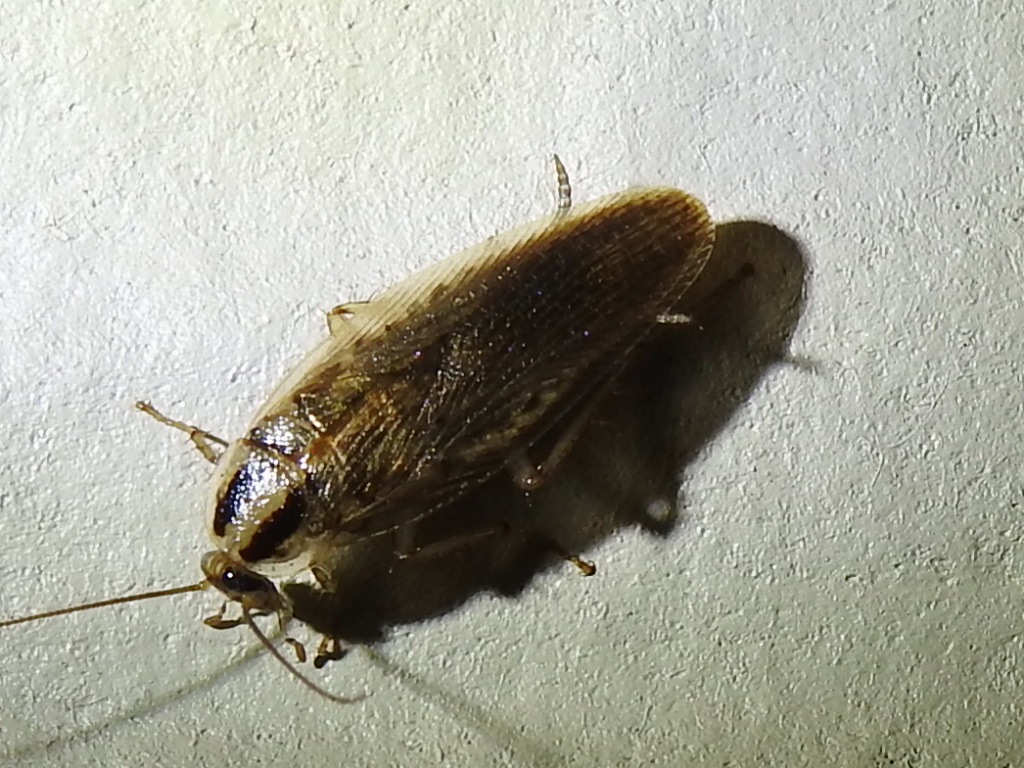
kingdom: Animalia
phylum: Arthropoda
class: Insecta
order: Blattodea
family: Ectobiidae
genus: Blattella
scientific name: Blattella asahinai
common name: Asian cockroach
